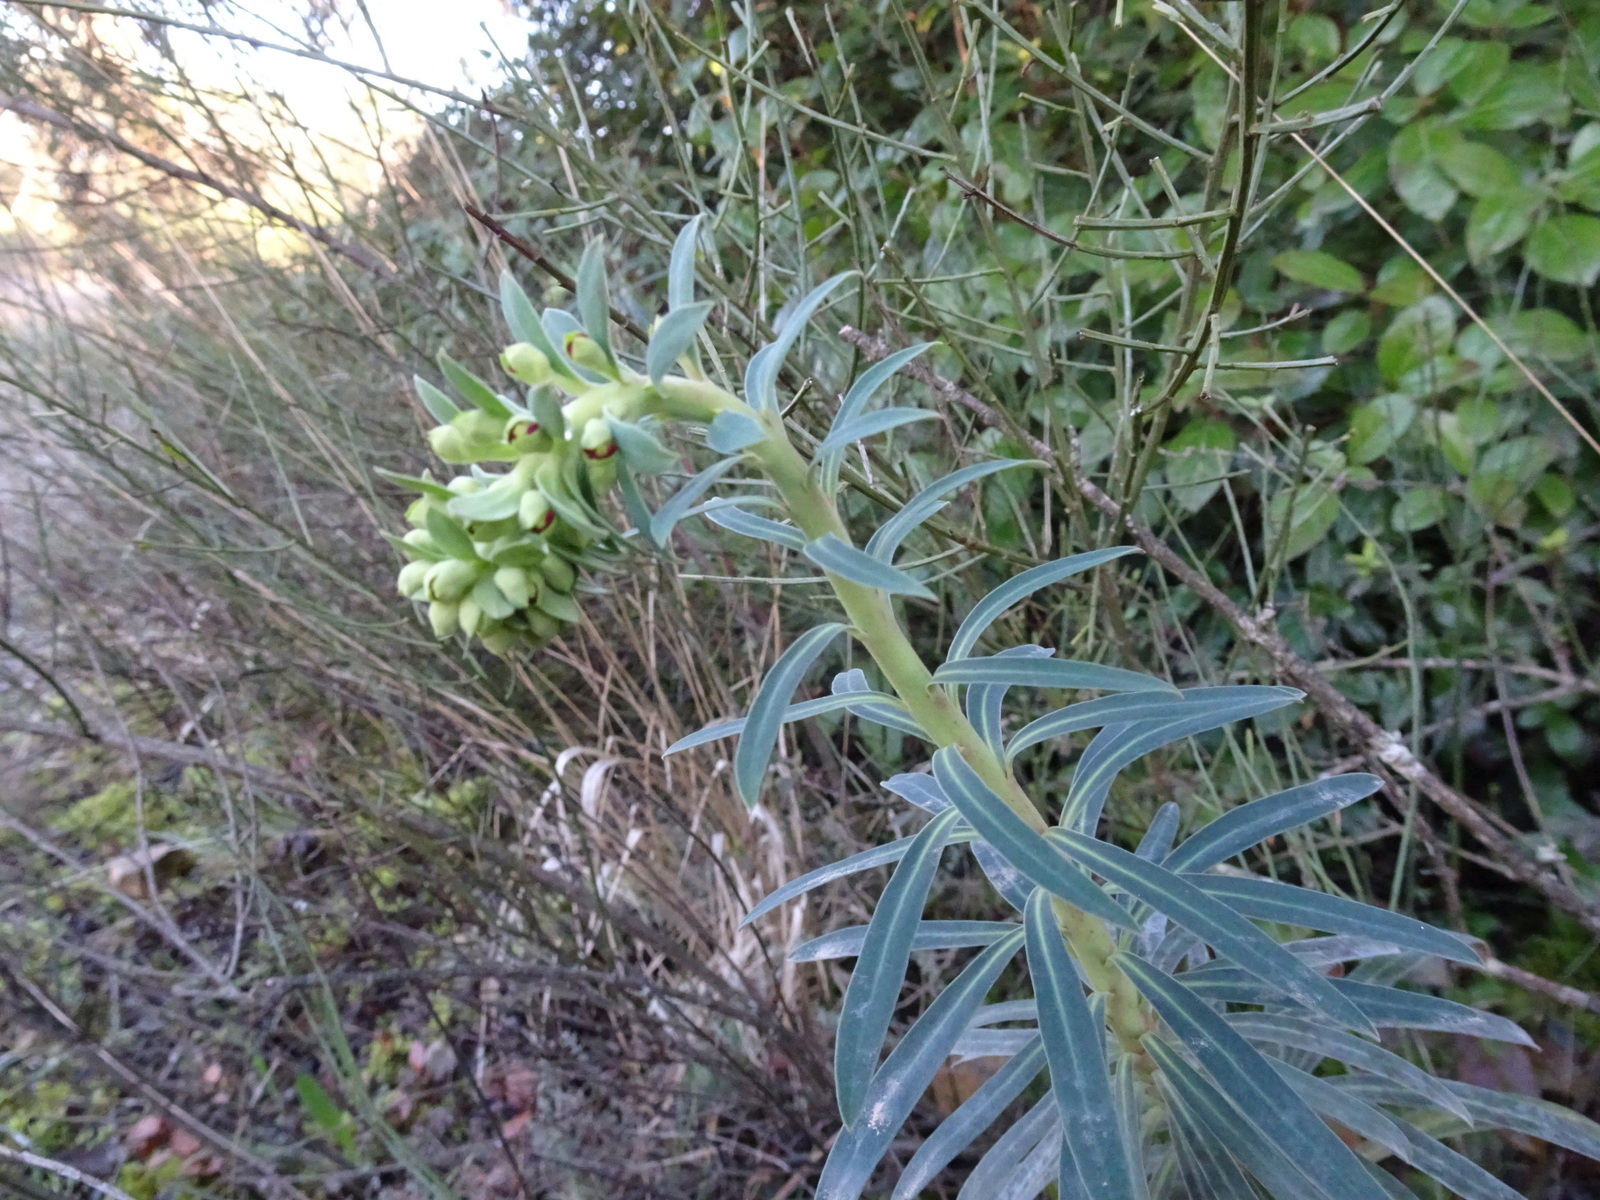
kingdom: Plantae
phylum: Tracheophyta
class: Magnoliopsida
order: Malpighiales
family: Euphorbiaceae
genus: Euphorbia
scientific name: Euphorbia characias
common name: Mediterranean spurge
